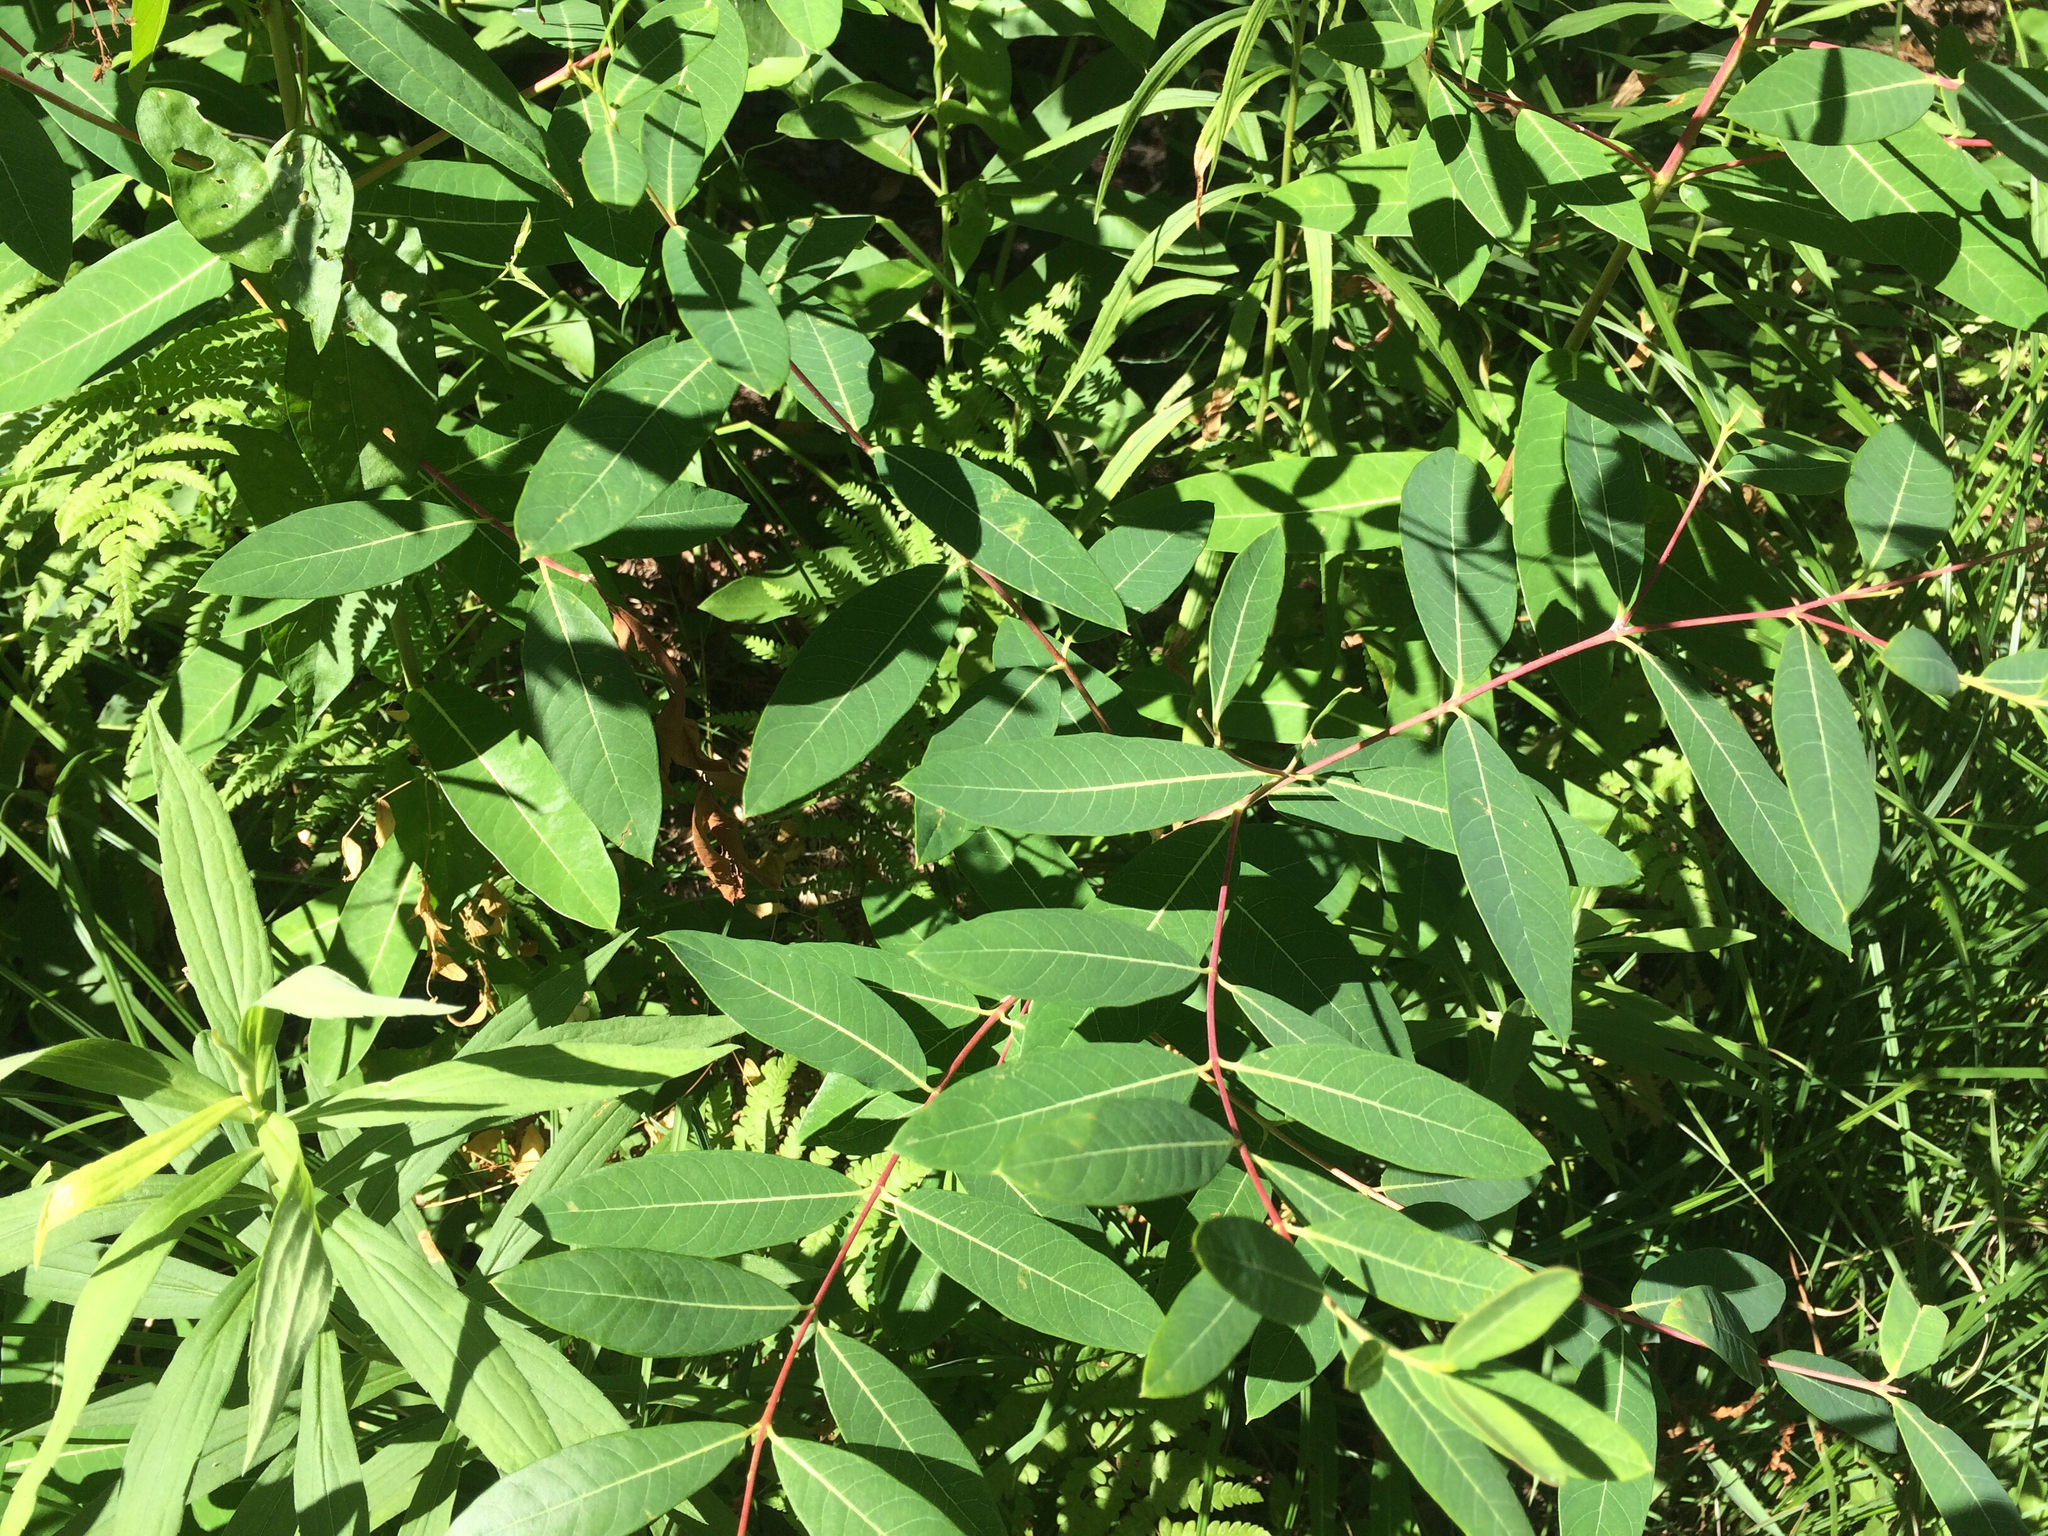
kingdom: Plantae
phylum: Tracheophyta
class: Magnoliopsida
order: Gentianales
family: Apocynaceae
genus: Apocynum
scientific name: Apocynum androsaemifolium
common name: Spreading dogbane
